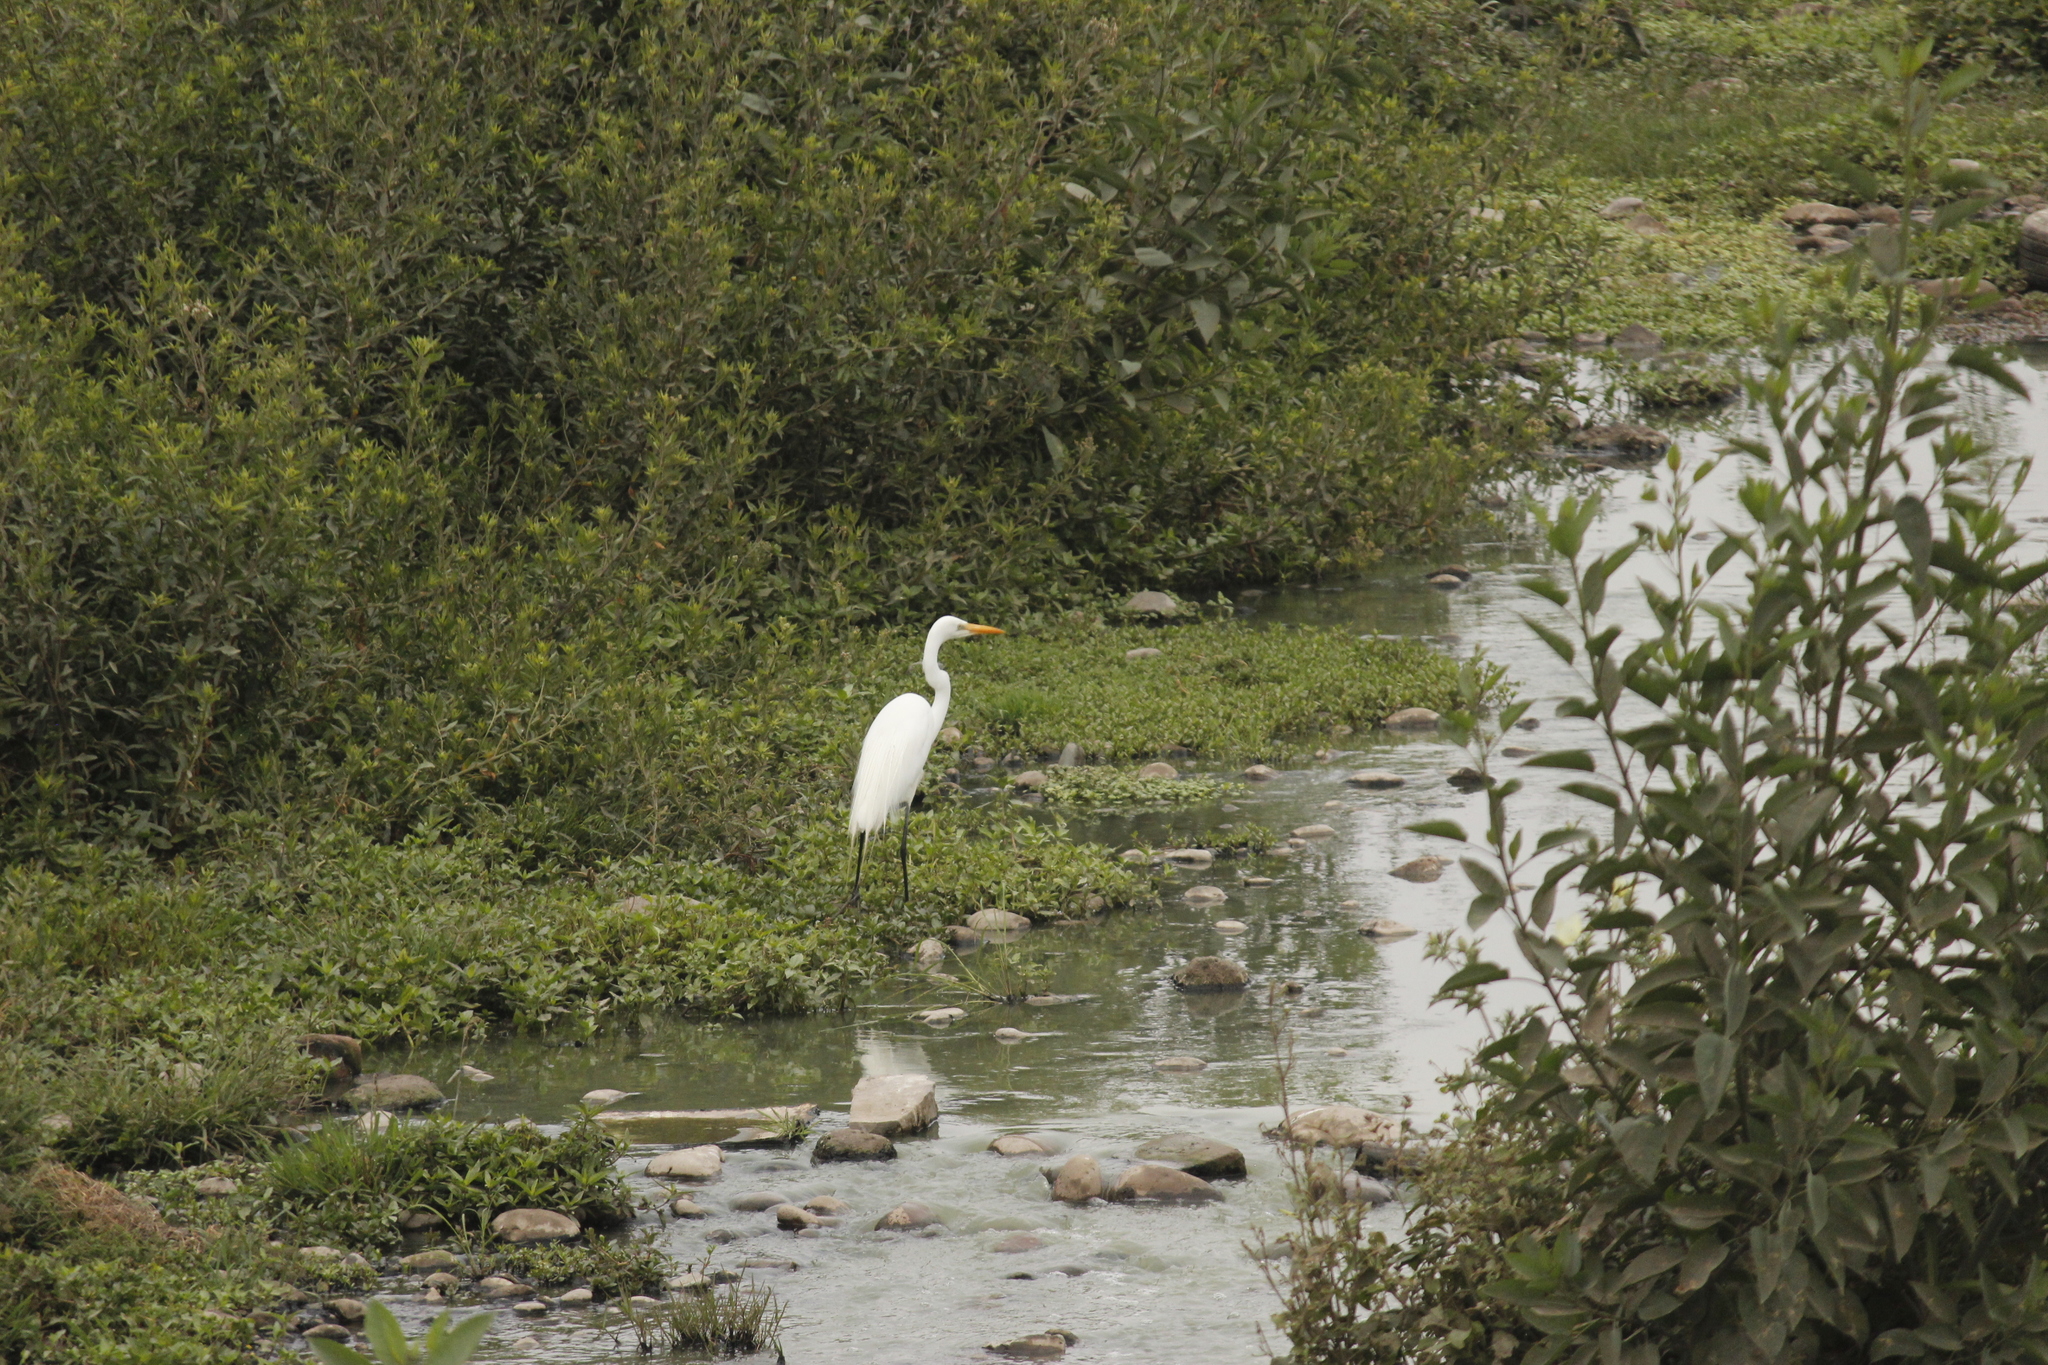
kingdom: Animalia
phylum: Chordata
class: Aves
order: Pelecaniformes
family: Ardeidae
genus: Ardea
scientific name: Ardea alba
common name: Great egret
